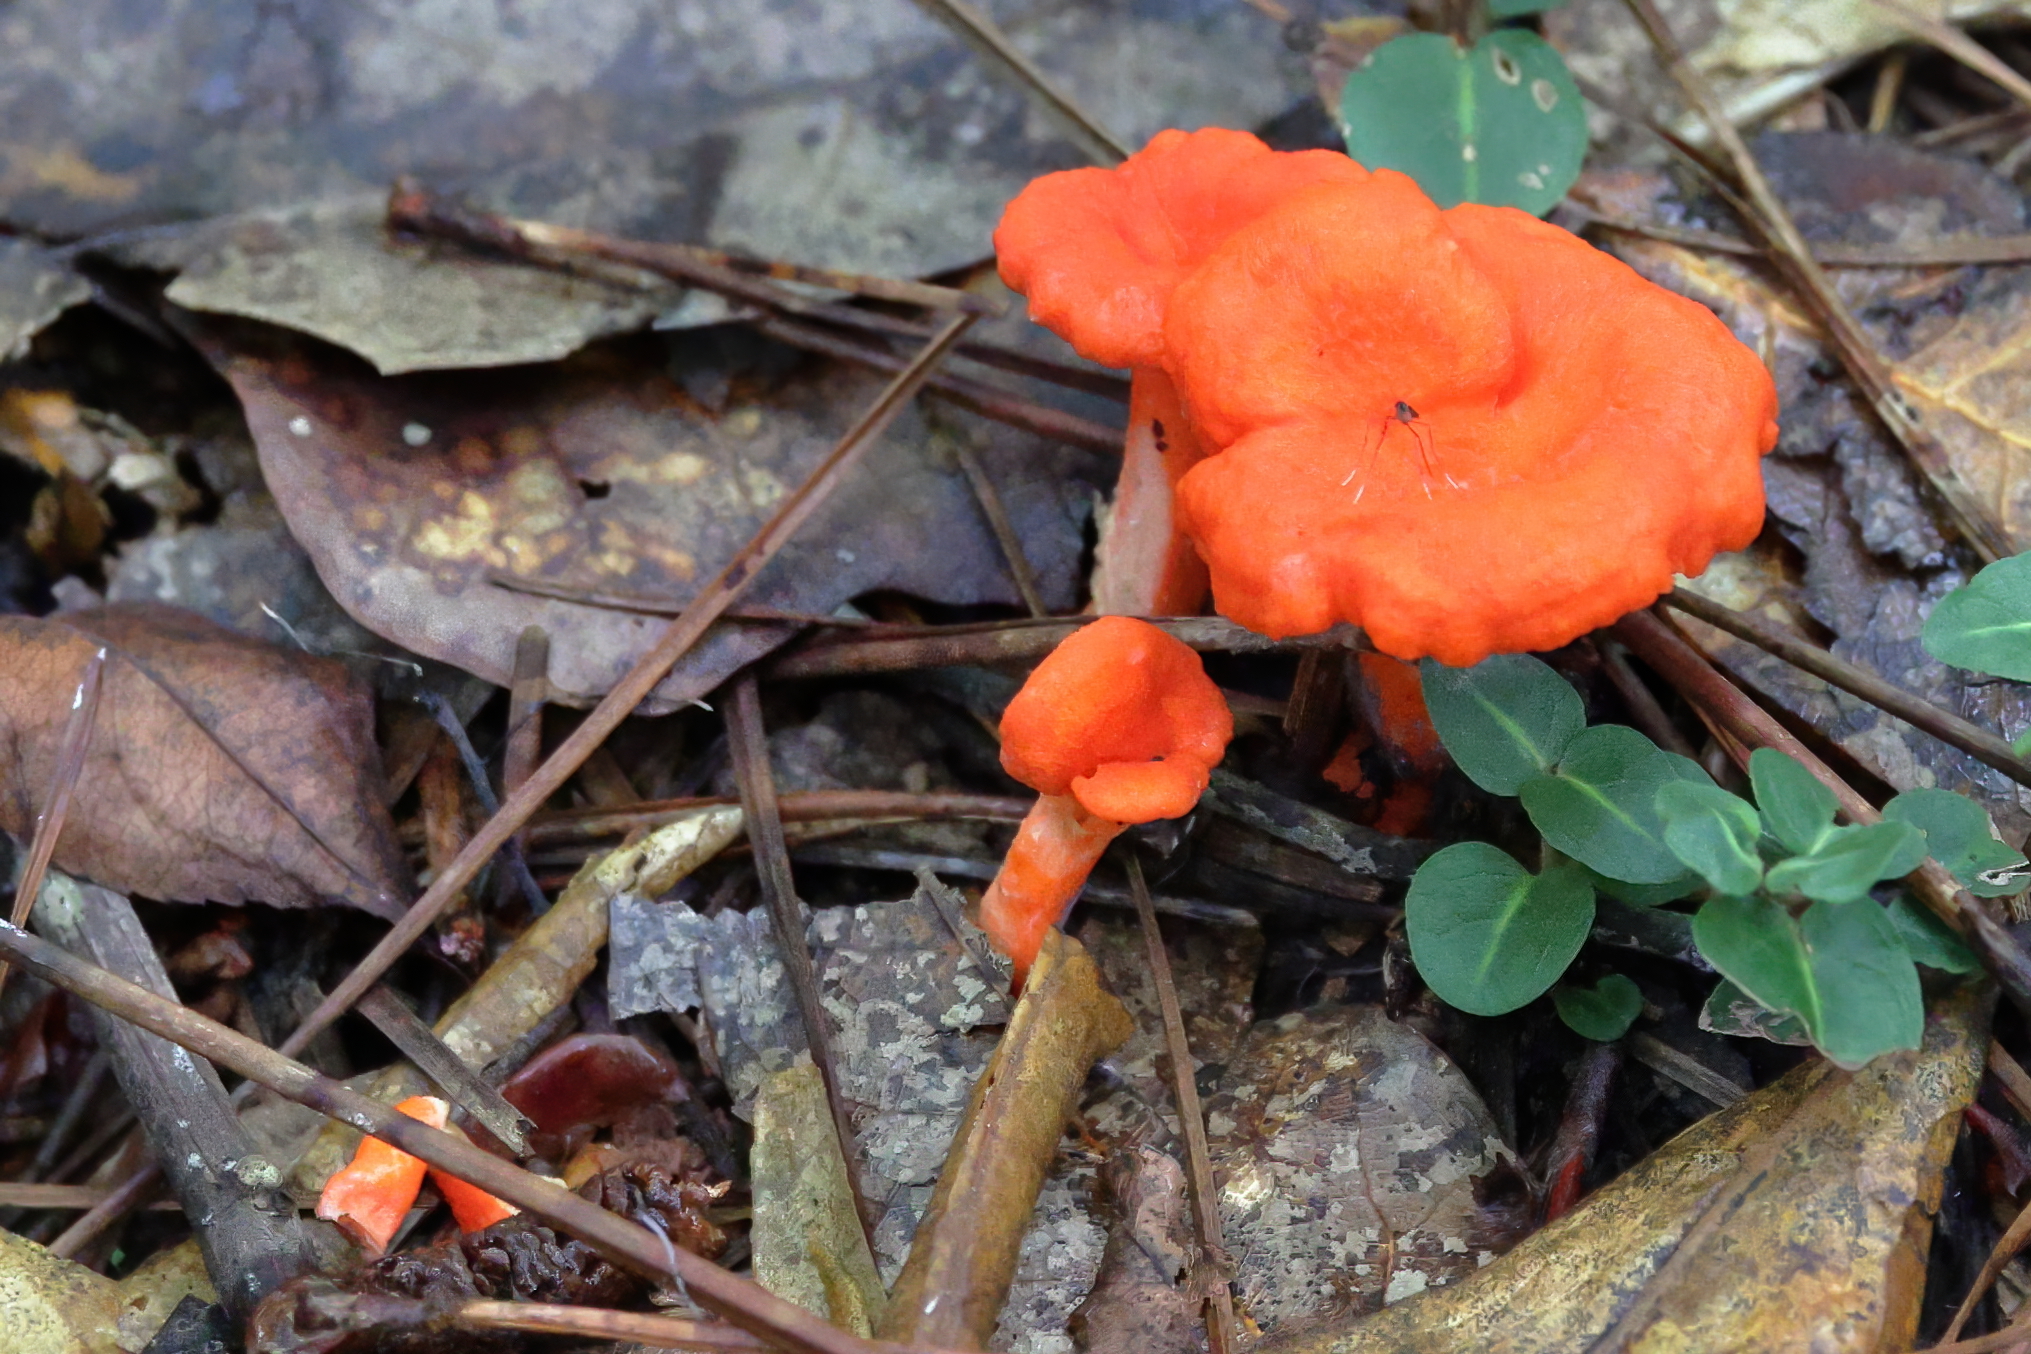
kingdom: Fungi
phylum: Basidiomycota
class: Agaricomycetes
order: Cantharellales
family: Hydnaceae
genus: Cantharellus
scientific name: Cantharellus cinnabarinus
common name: Cinnabar chanterelle
